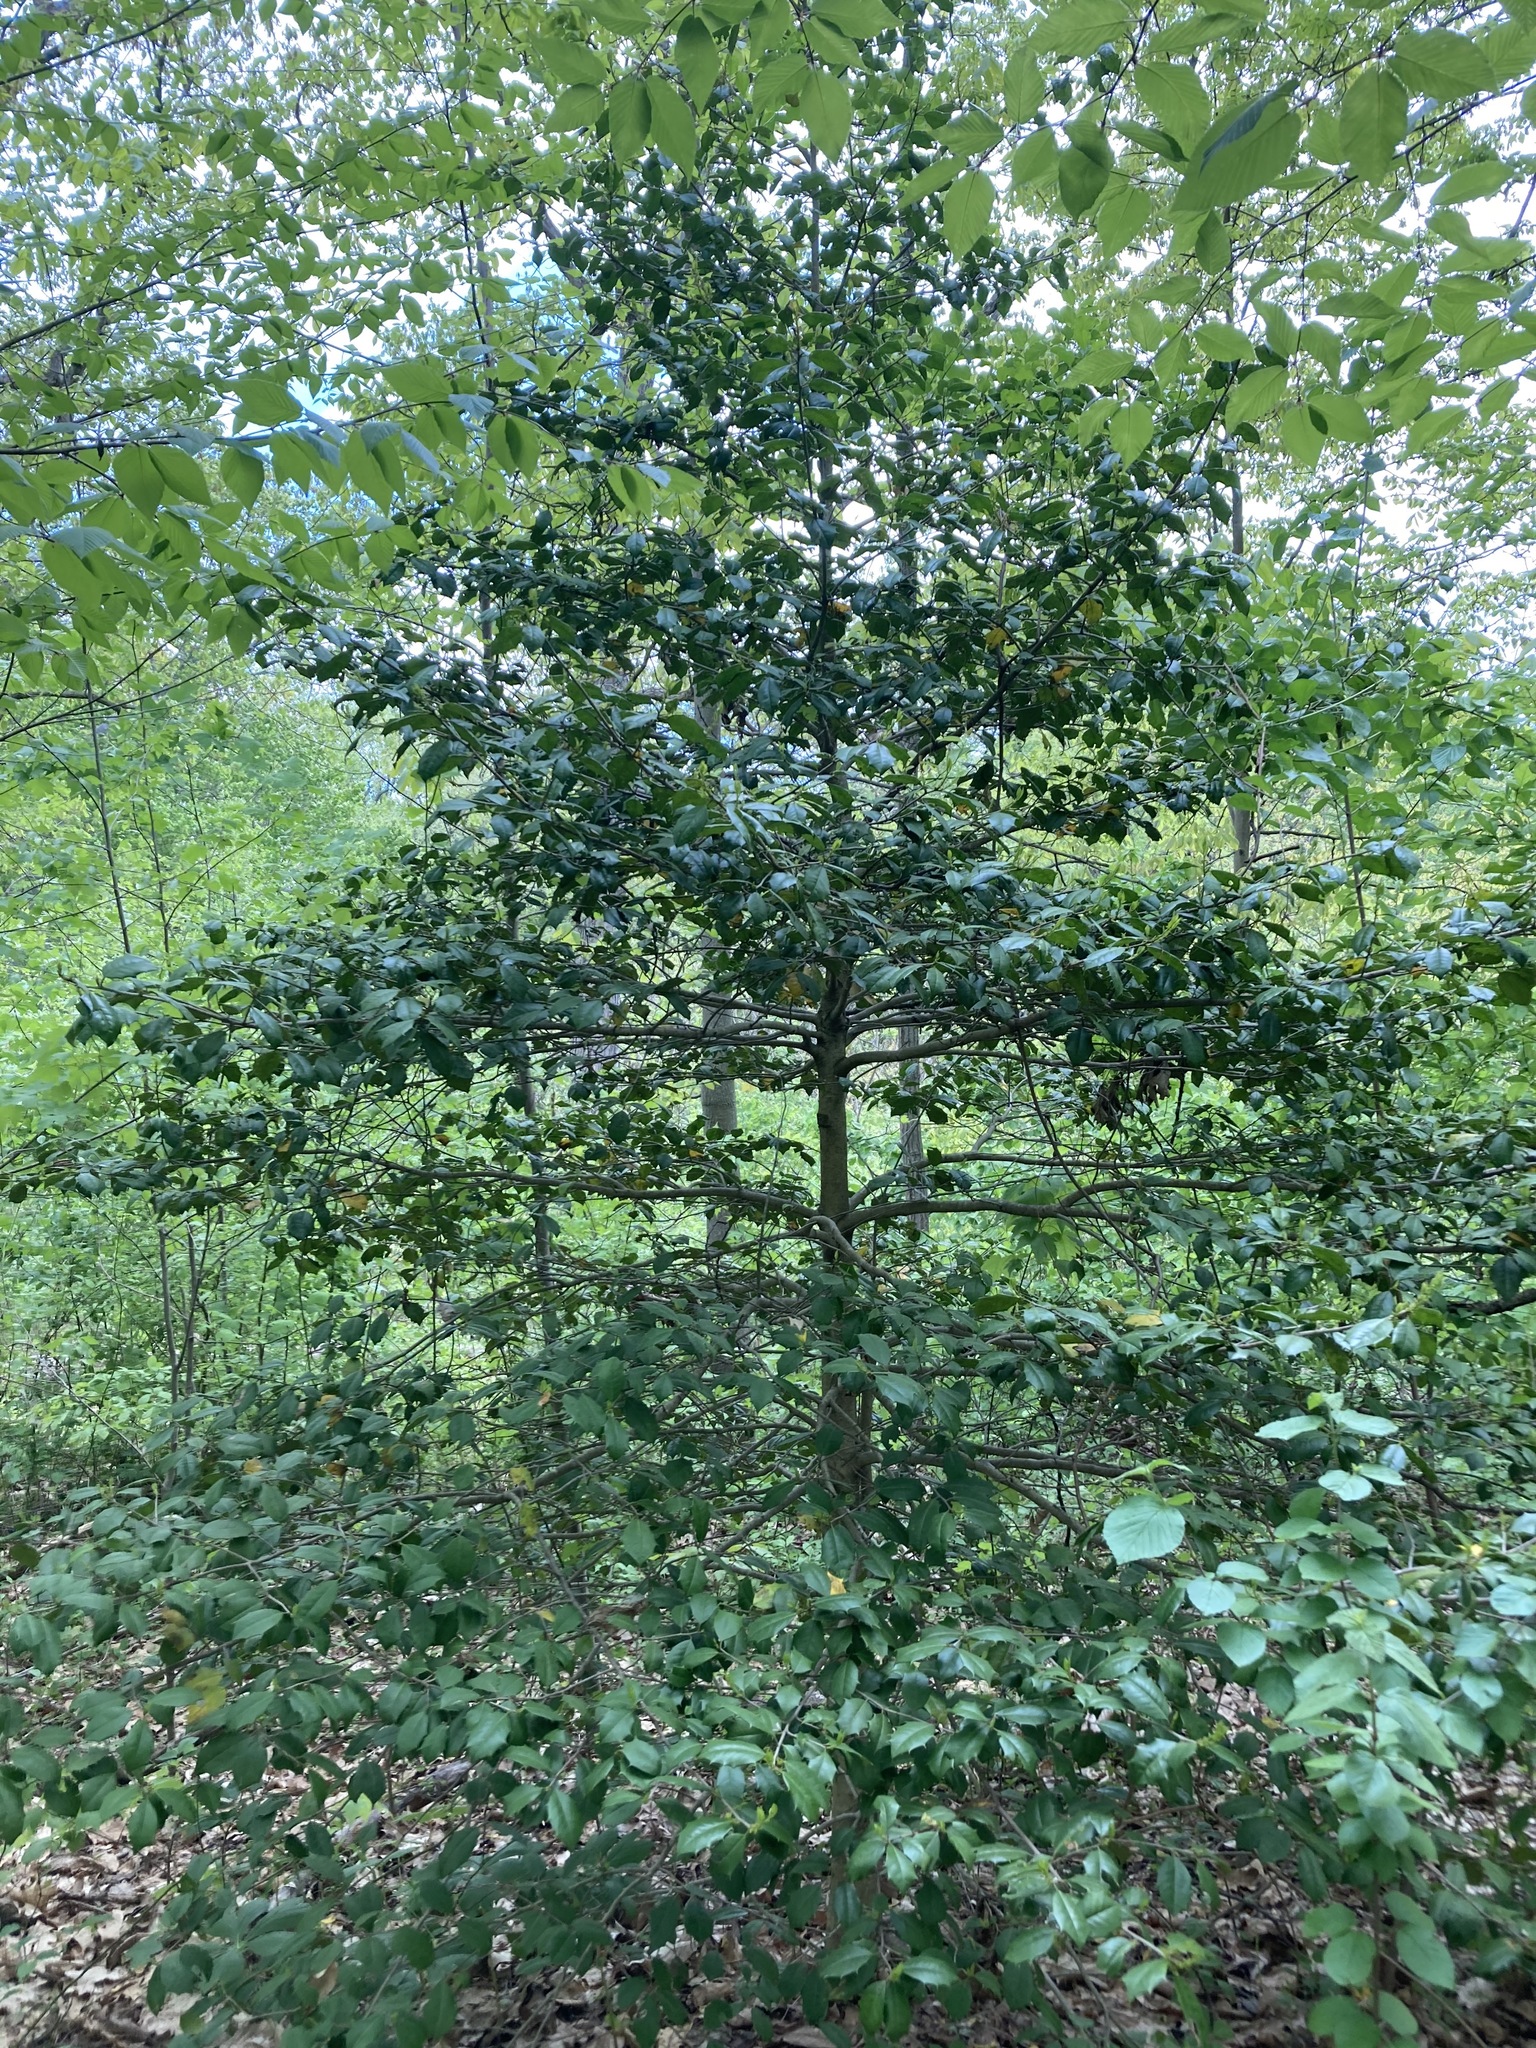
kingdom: Plantae
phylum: Tracheophyta
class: Magnoliopsida
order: Aquifoliales
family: Aquifoliaceae
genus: Ilex
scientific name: Ilex opaca
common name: American holly
